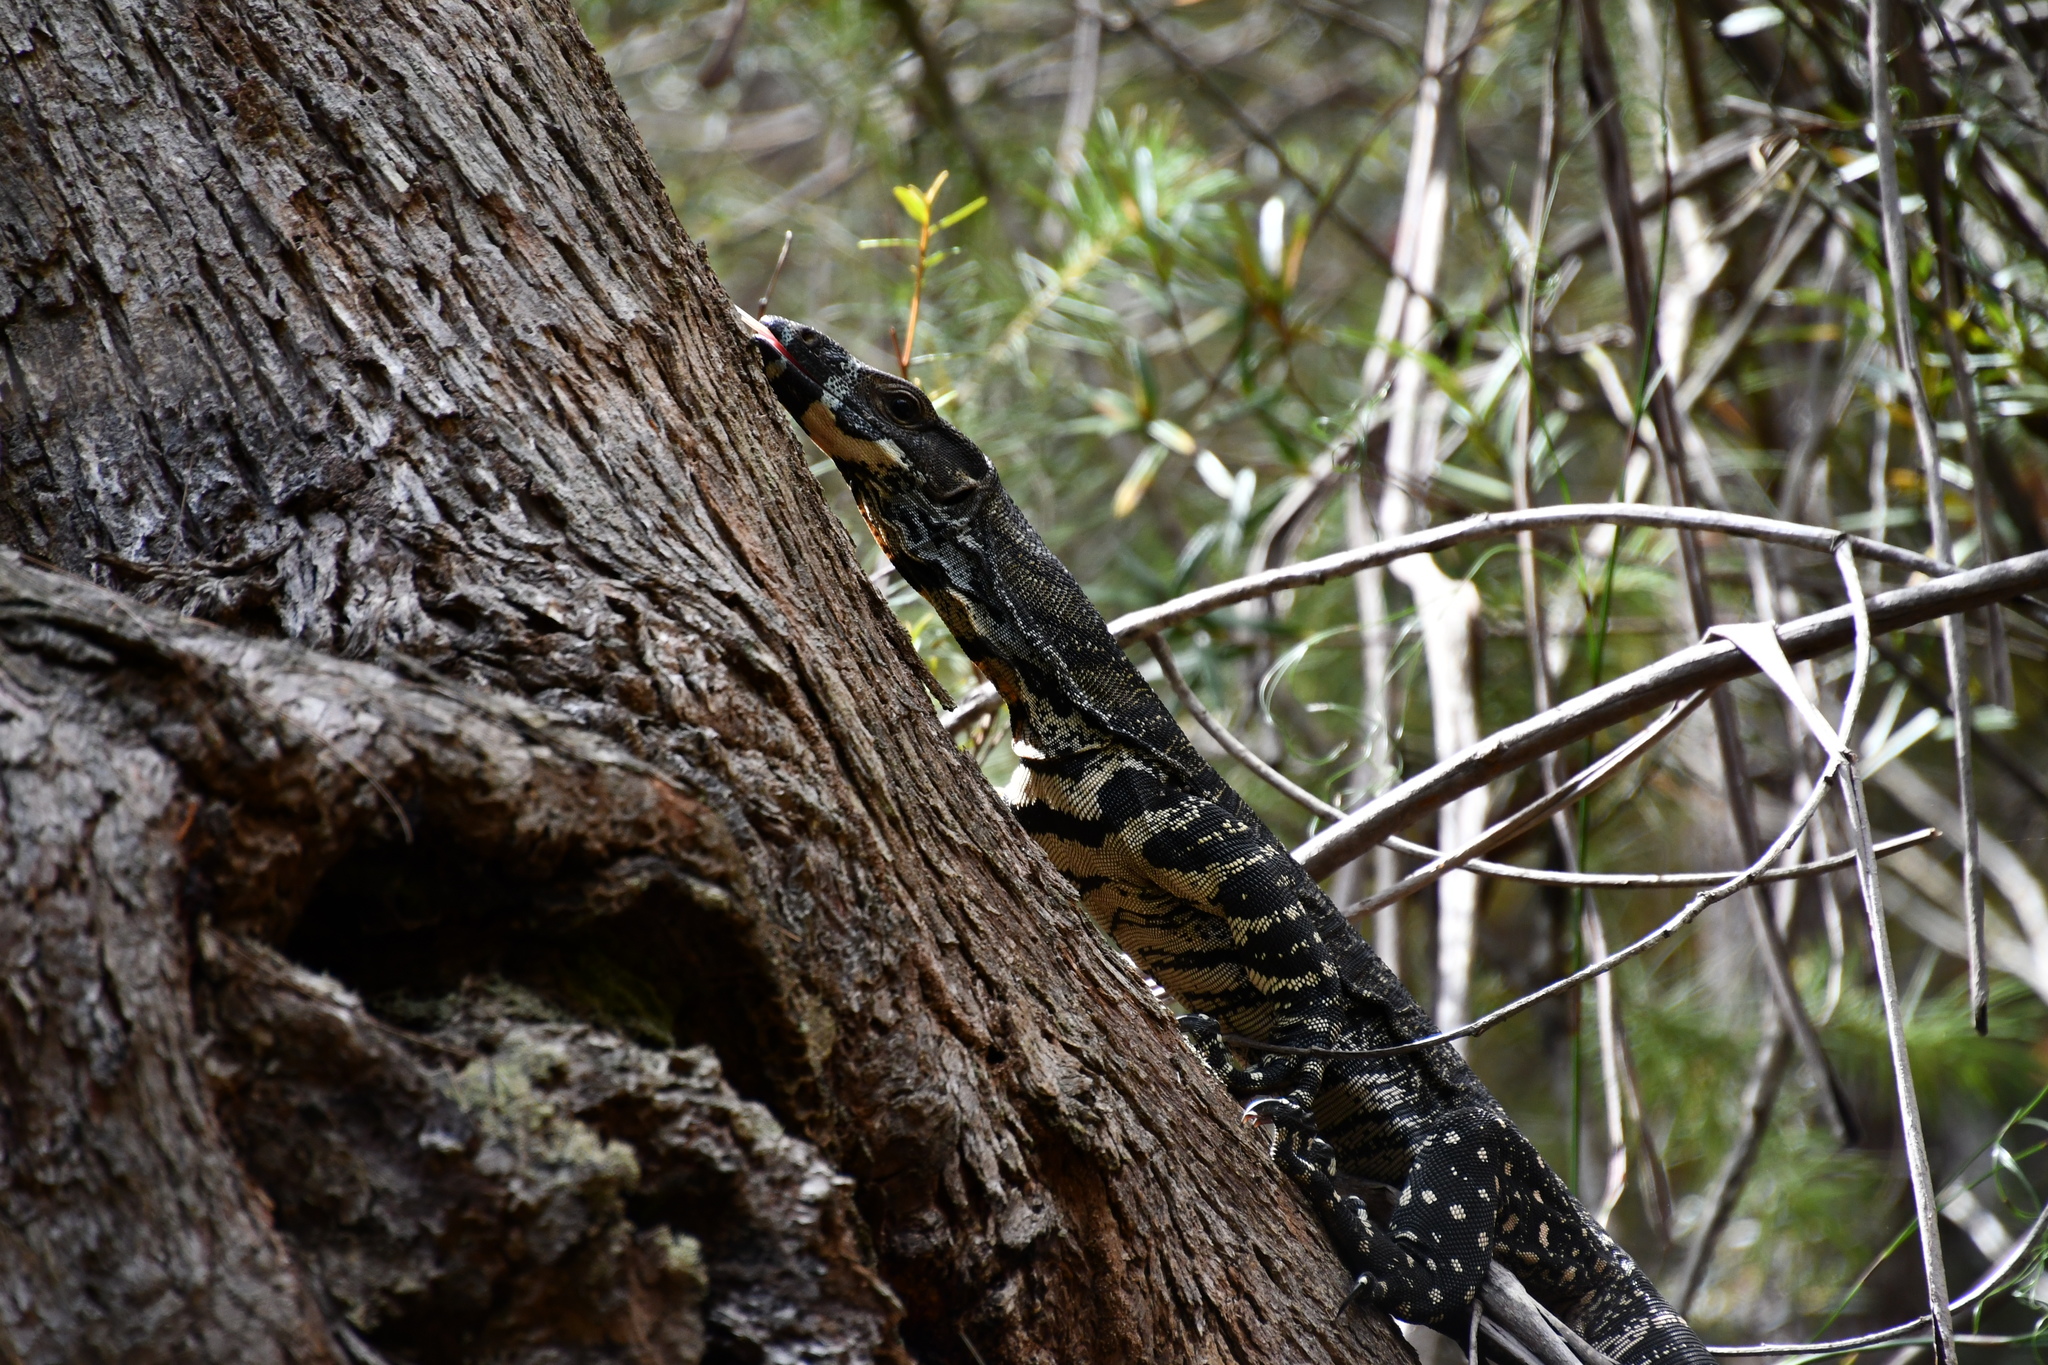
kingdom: Animalia
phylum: Chordata
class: Squamata
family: Varanidae
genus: Varanus
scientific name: Varanus varius
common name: Lace monitor
